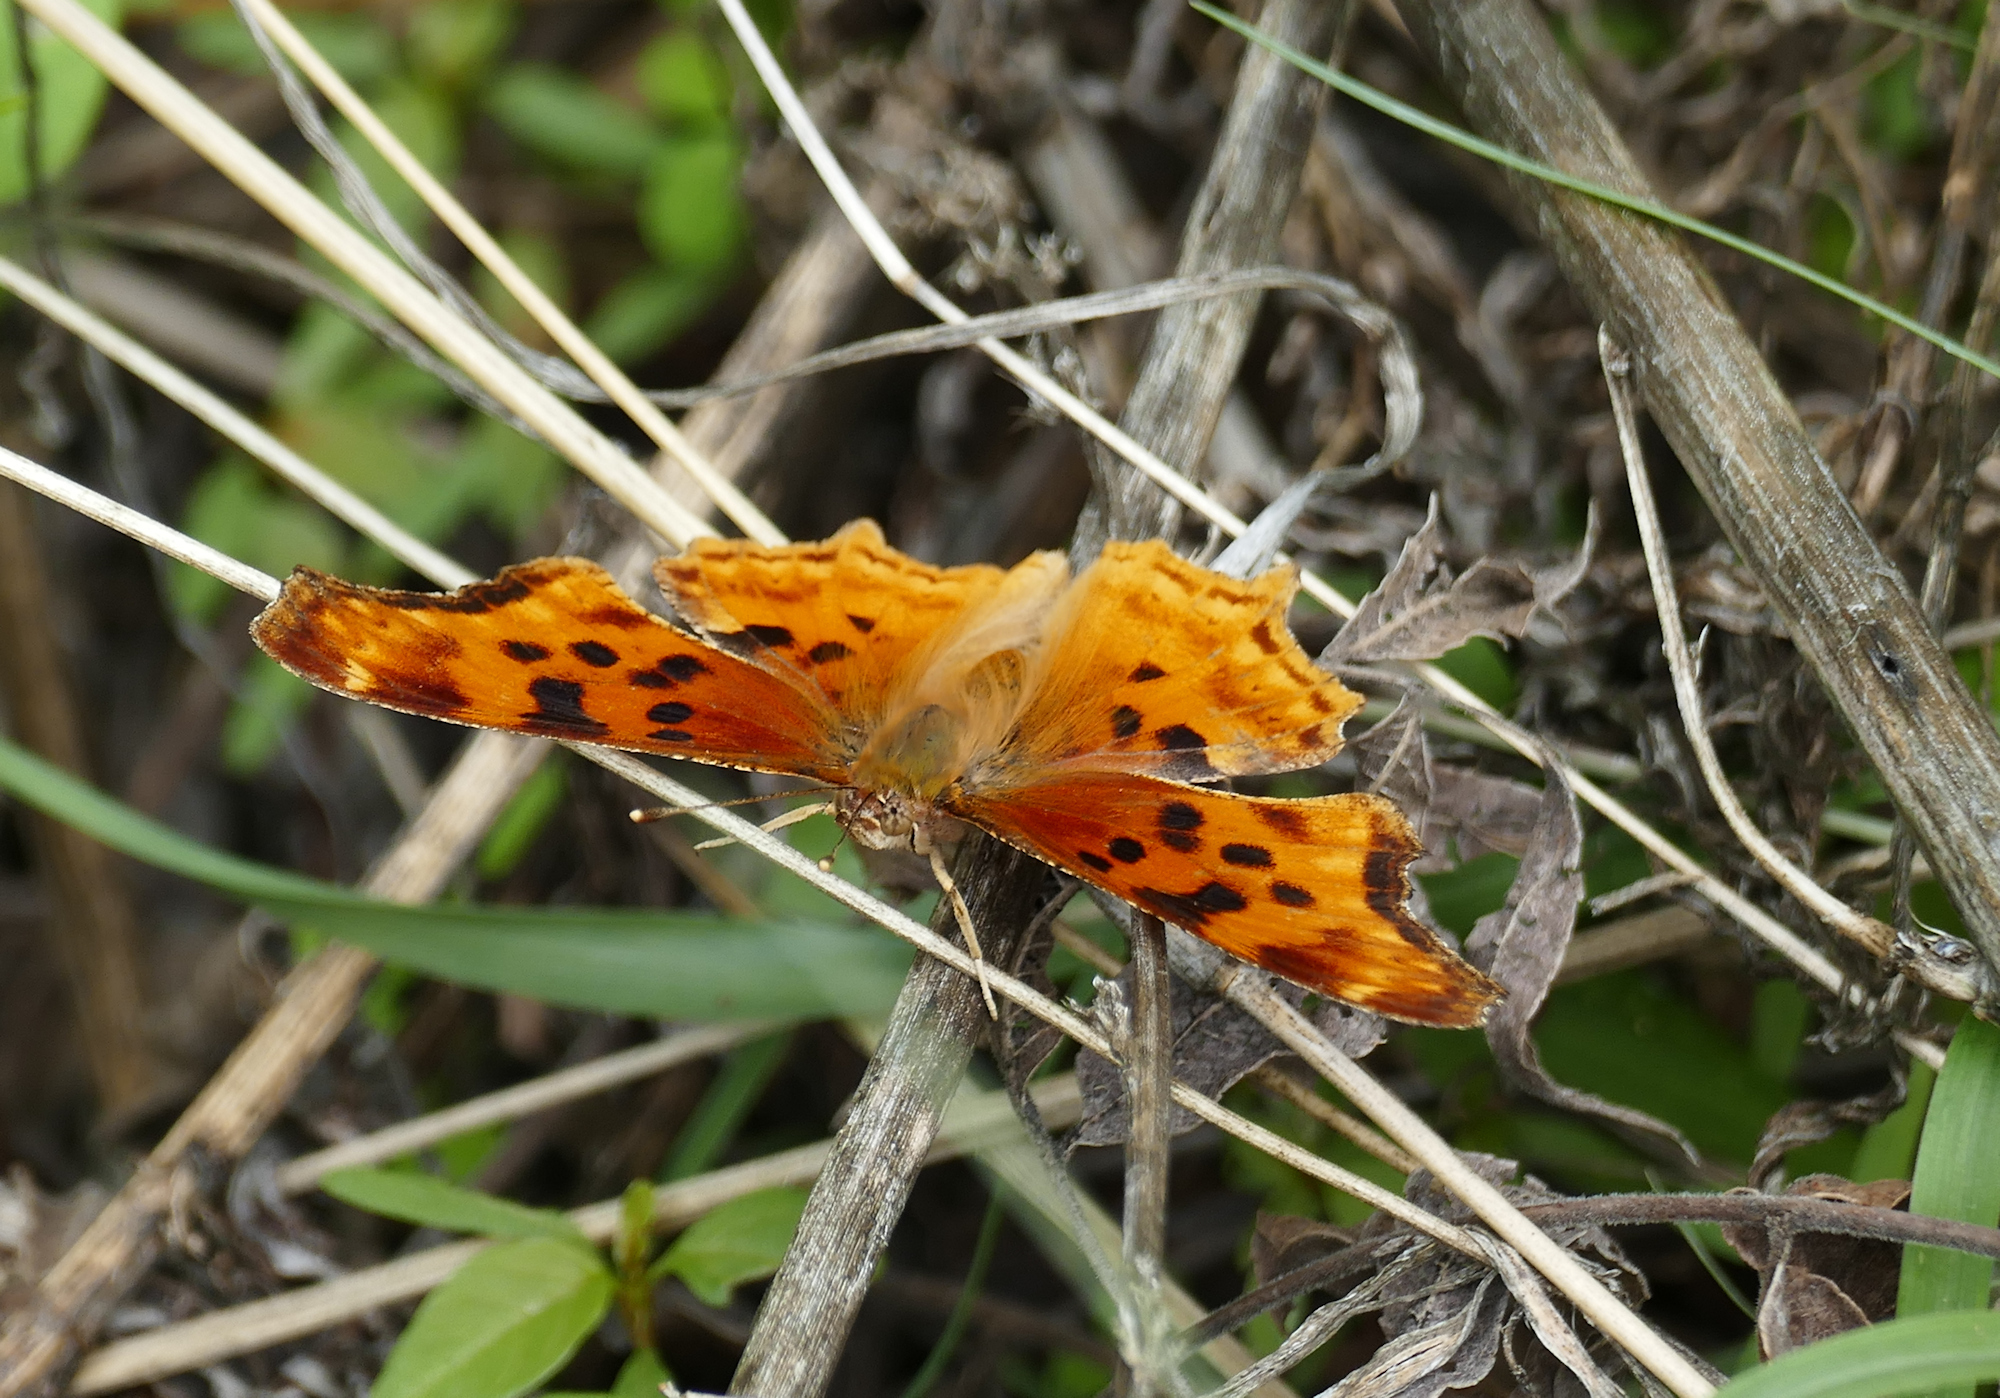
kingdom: Animalia
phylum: Arthropoda
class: Insecta
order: Lepidoptera
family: Nymphalidae
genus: Polygonia
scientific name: Polygonia satyrus
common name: Satyr angle wing
